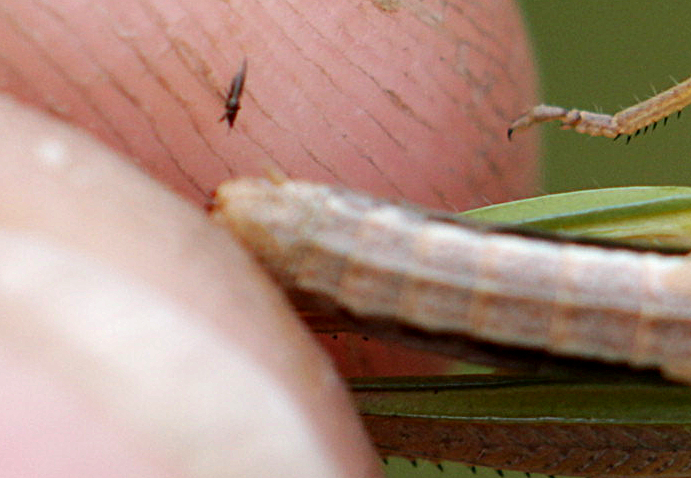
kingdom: Animalia
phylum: Arthropoda
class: Insecta
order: Orthoptera
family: Acrididae
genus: Pseudochorthippus
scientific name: Pseudochorthippus parallelus
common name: Meadow grasshopper
